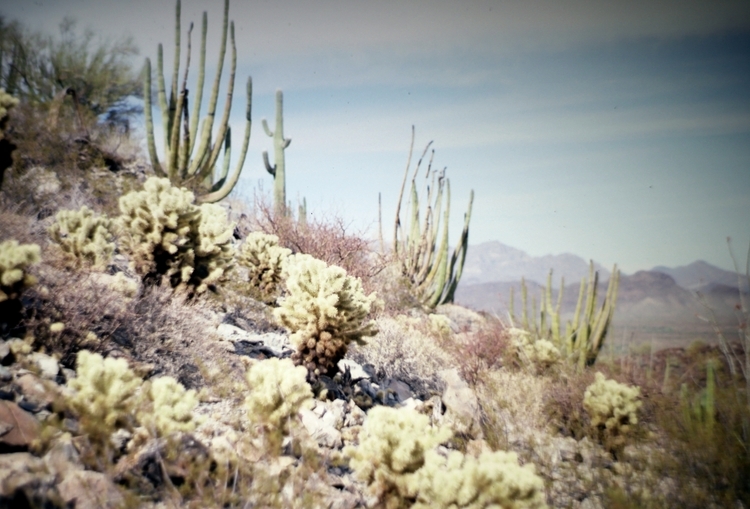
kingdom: Plantae
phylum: Tracheophyta
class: Magnoliopsida
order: Caryophyllales
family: Cactaceae
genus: Cylindropuntia
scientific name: Cylindropuntia fosbergii
